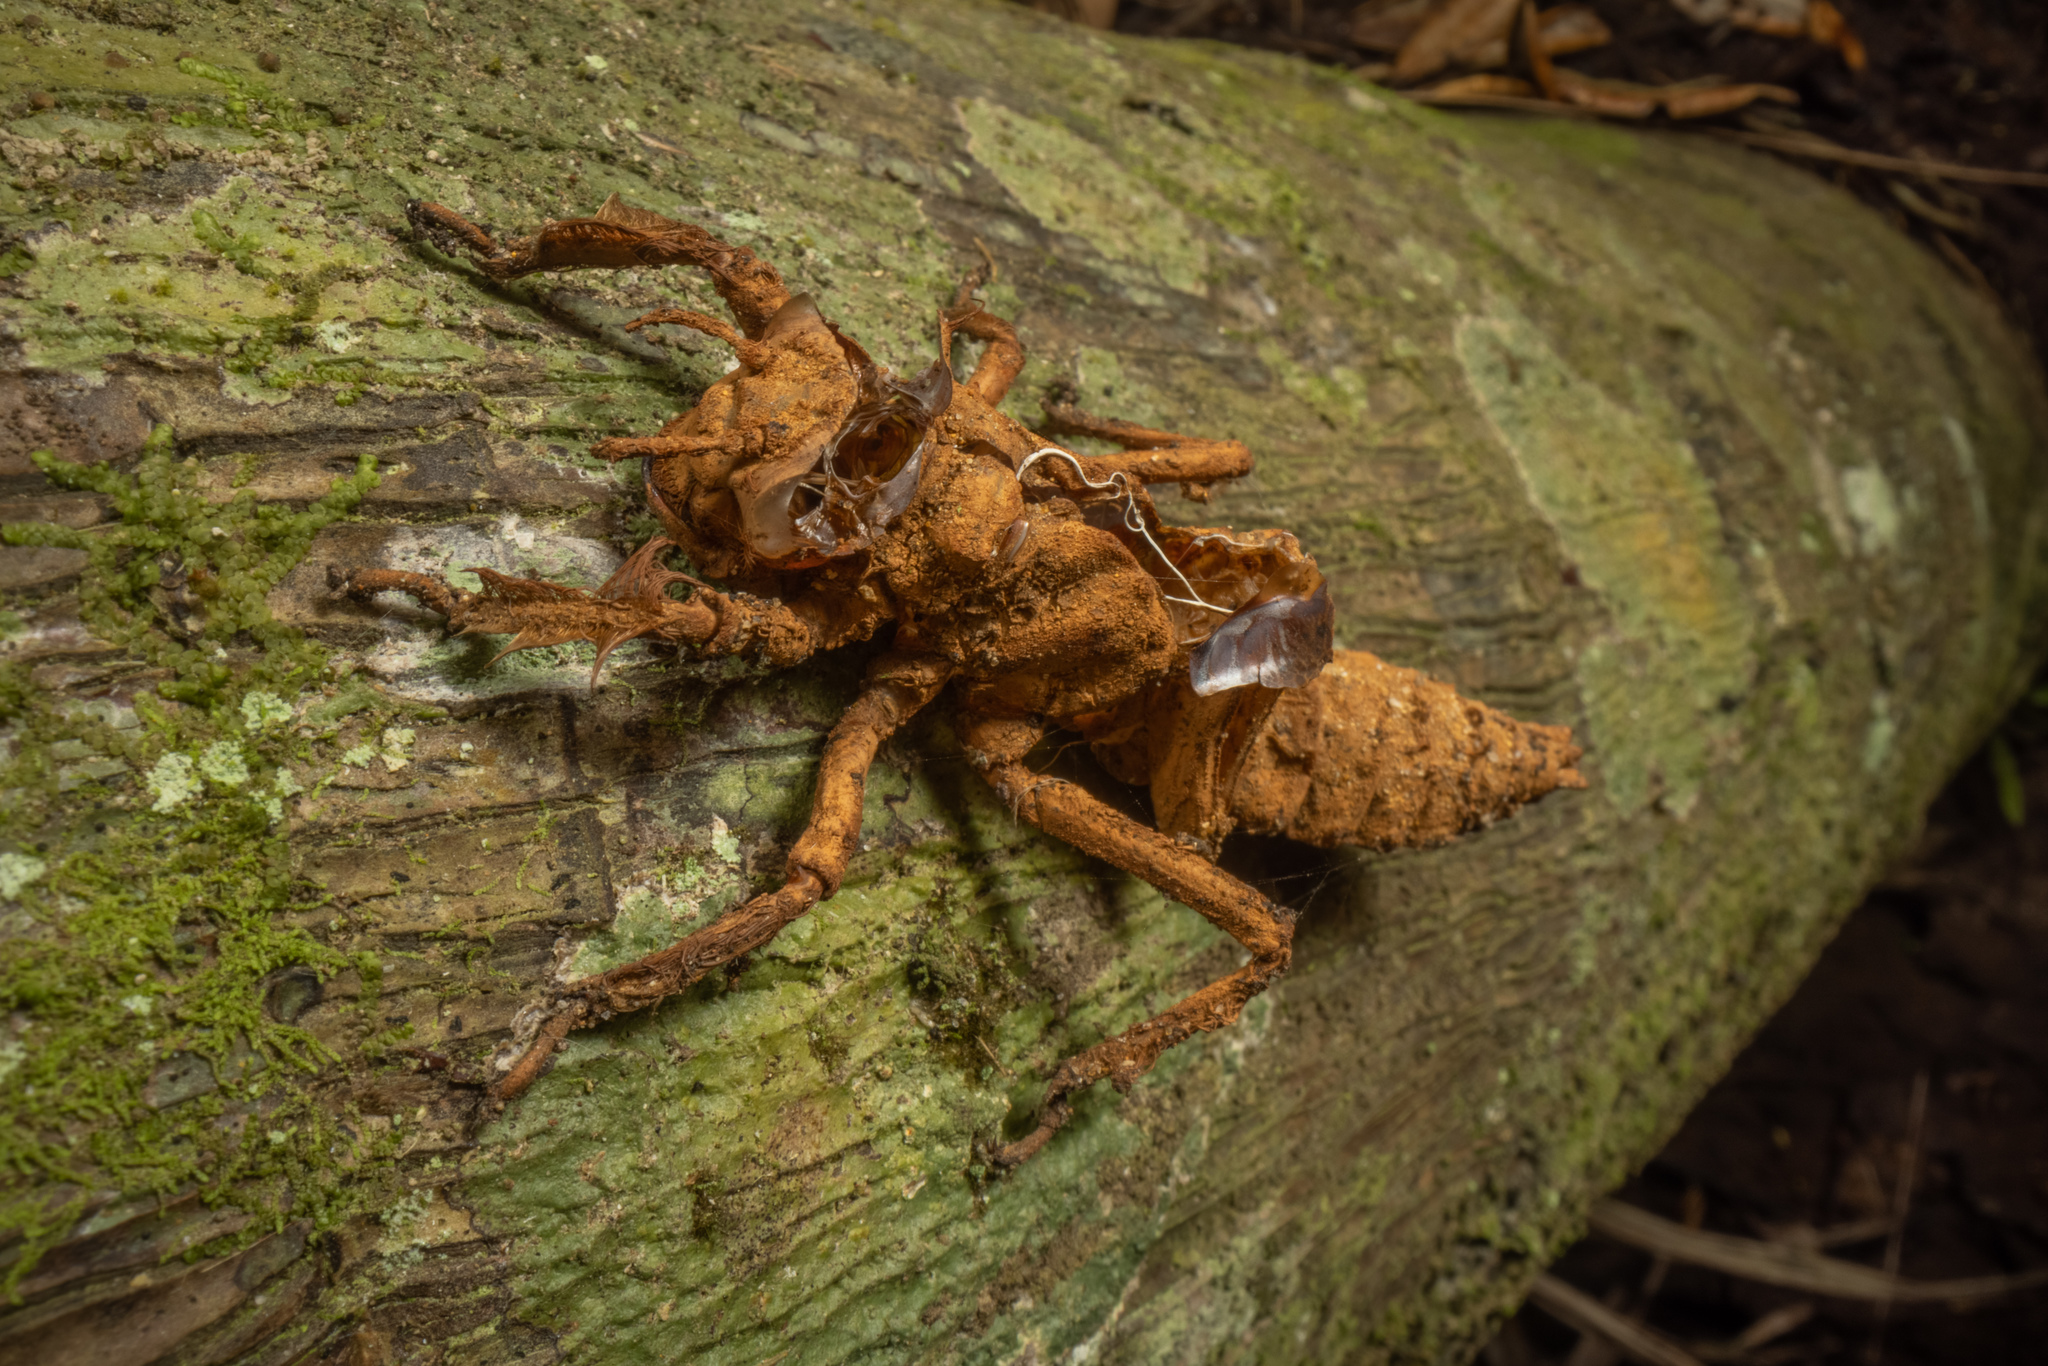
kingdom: Animalia
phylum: Arthropoda
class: Insecta
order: Odonata
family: Petaluridae
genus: Uropetala
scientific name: Uropetala carovei
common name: Bush giant dragonfly
